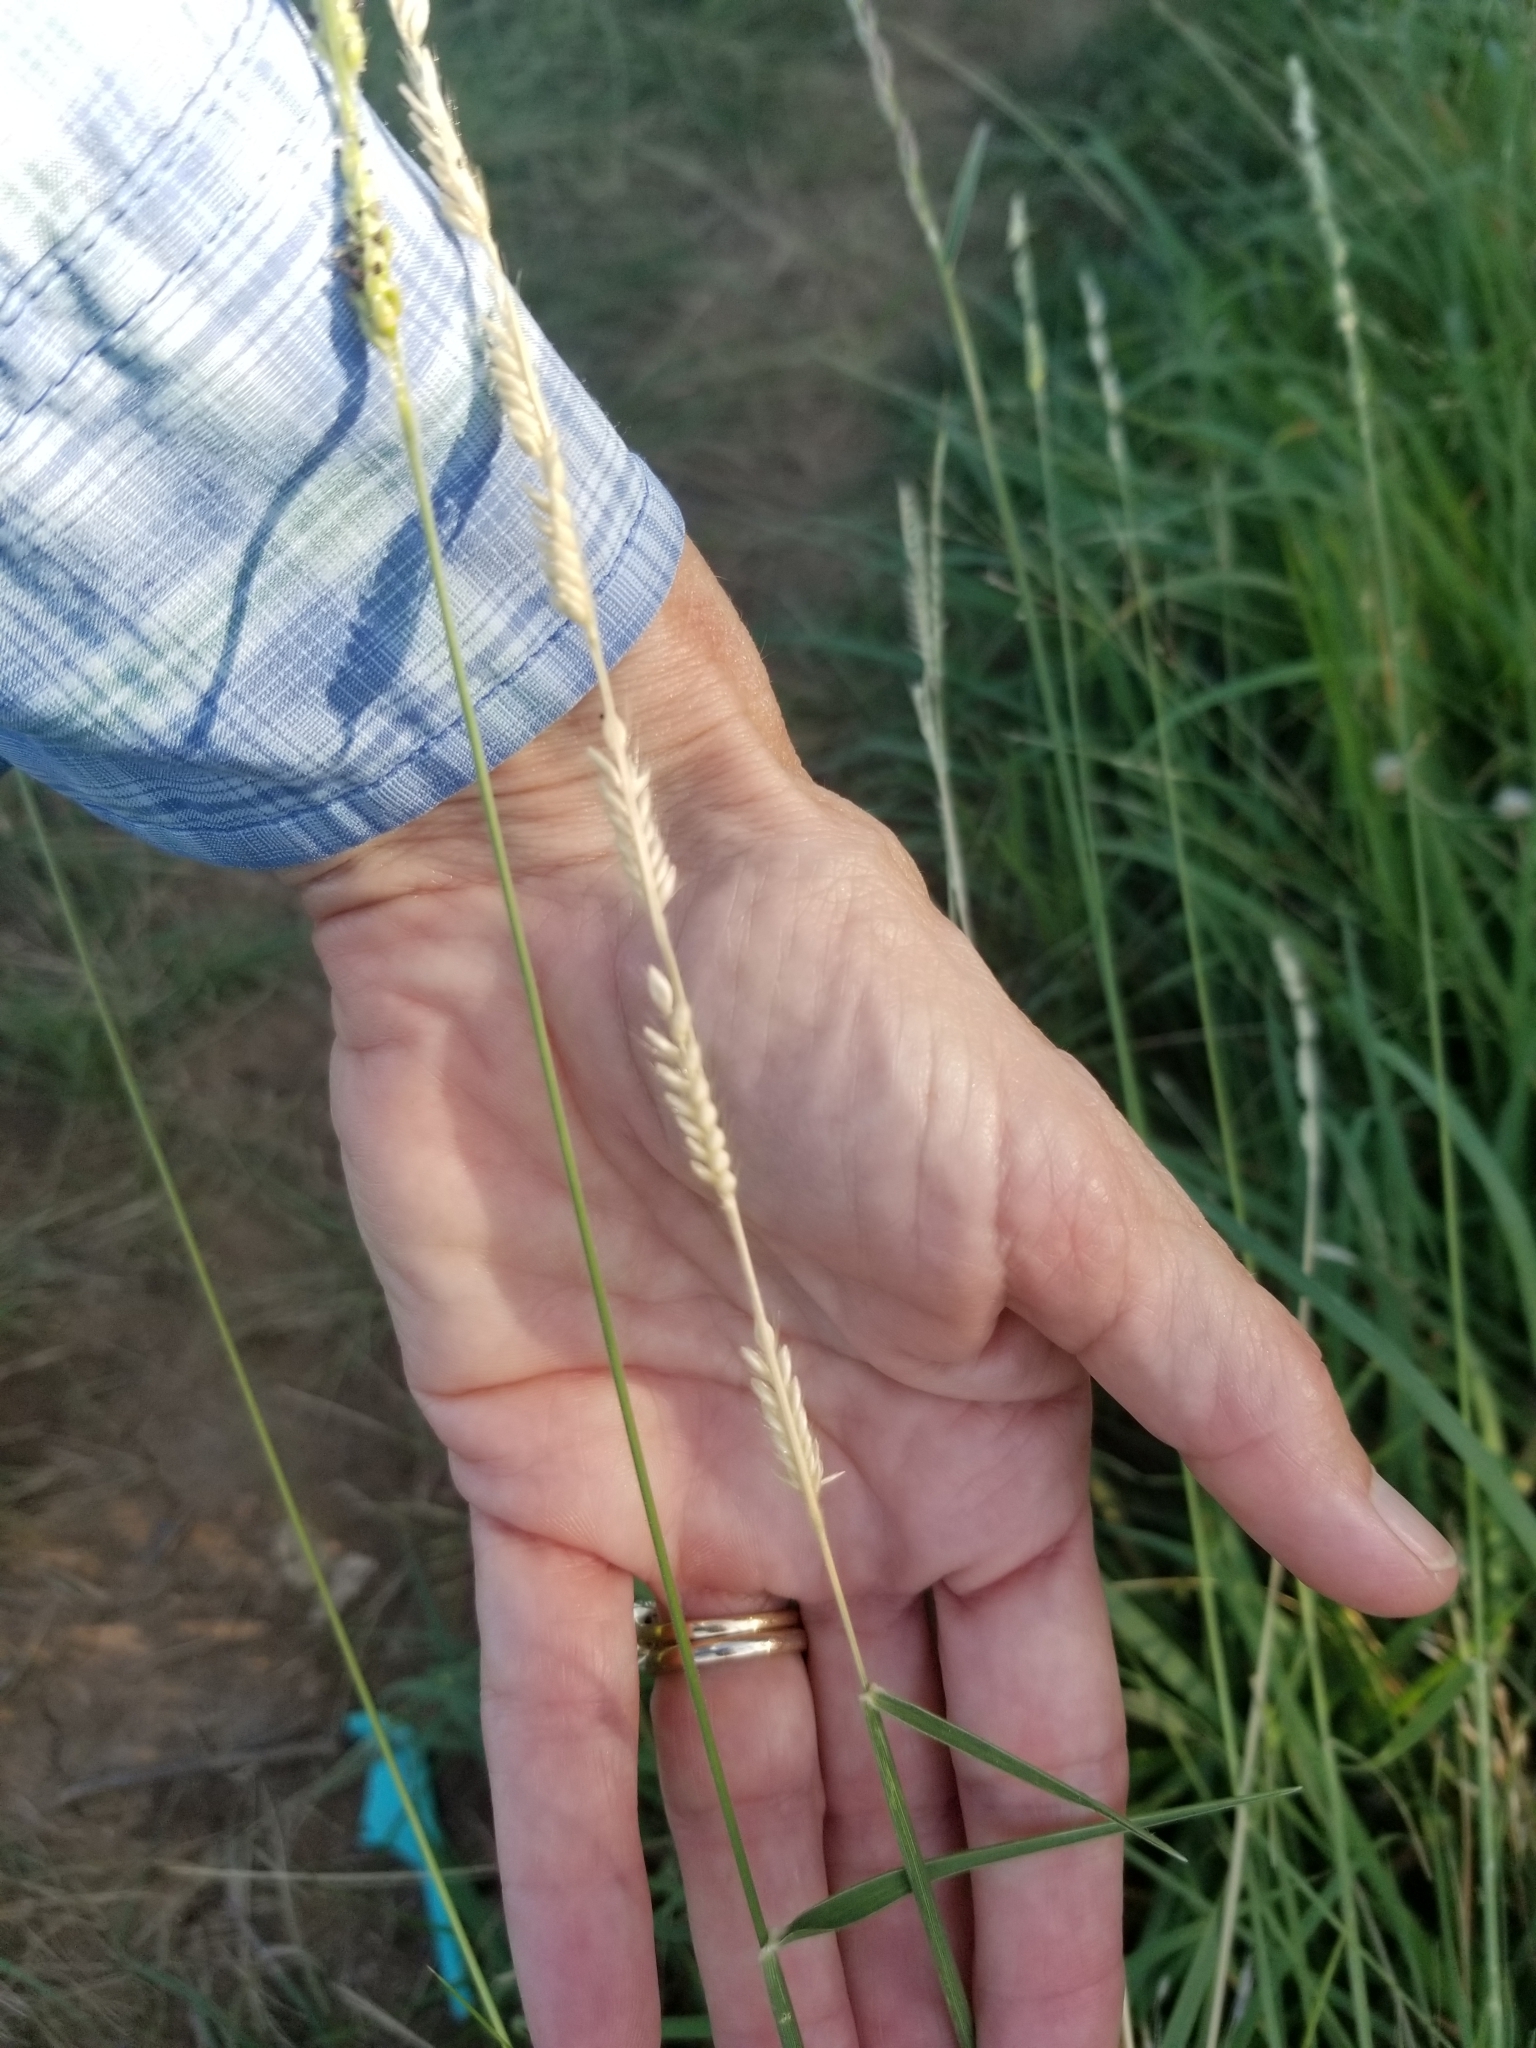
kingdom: Plantae
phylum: Tracheophyta
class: Liliopsida
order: Poales
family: Poaceae
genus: Eriochloa
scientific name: Eriochloa sericea
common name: Texas cup grass
